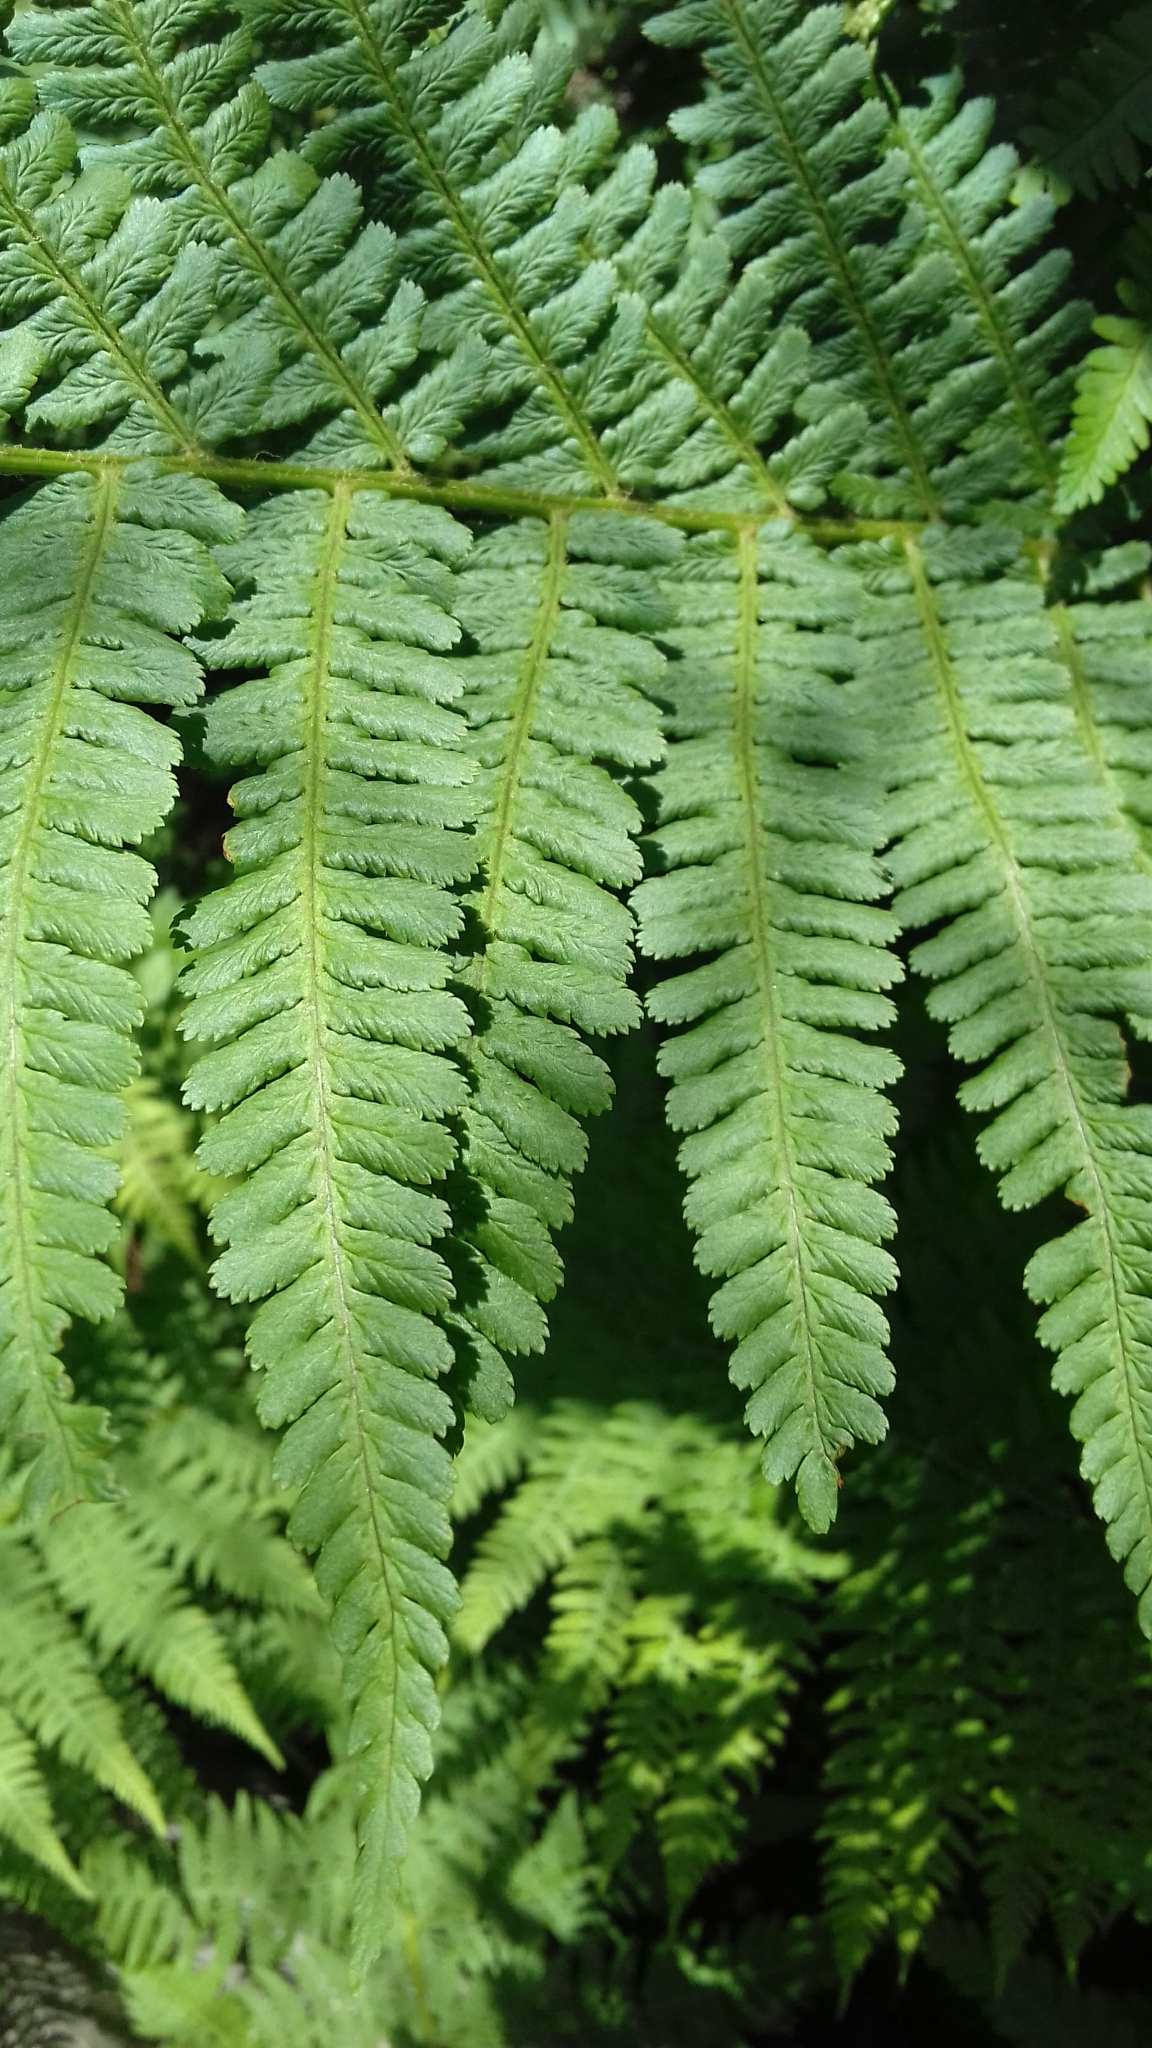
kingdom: Plantae
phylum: Tracheophyta
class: Polypodiopsida
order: Polypodiales
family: Dryopteridaceae
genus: Dryopteris
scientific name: Dryopteris filix-mas
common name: Male fern
